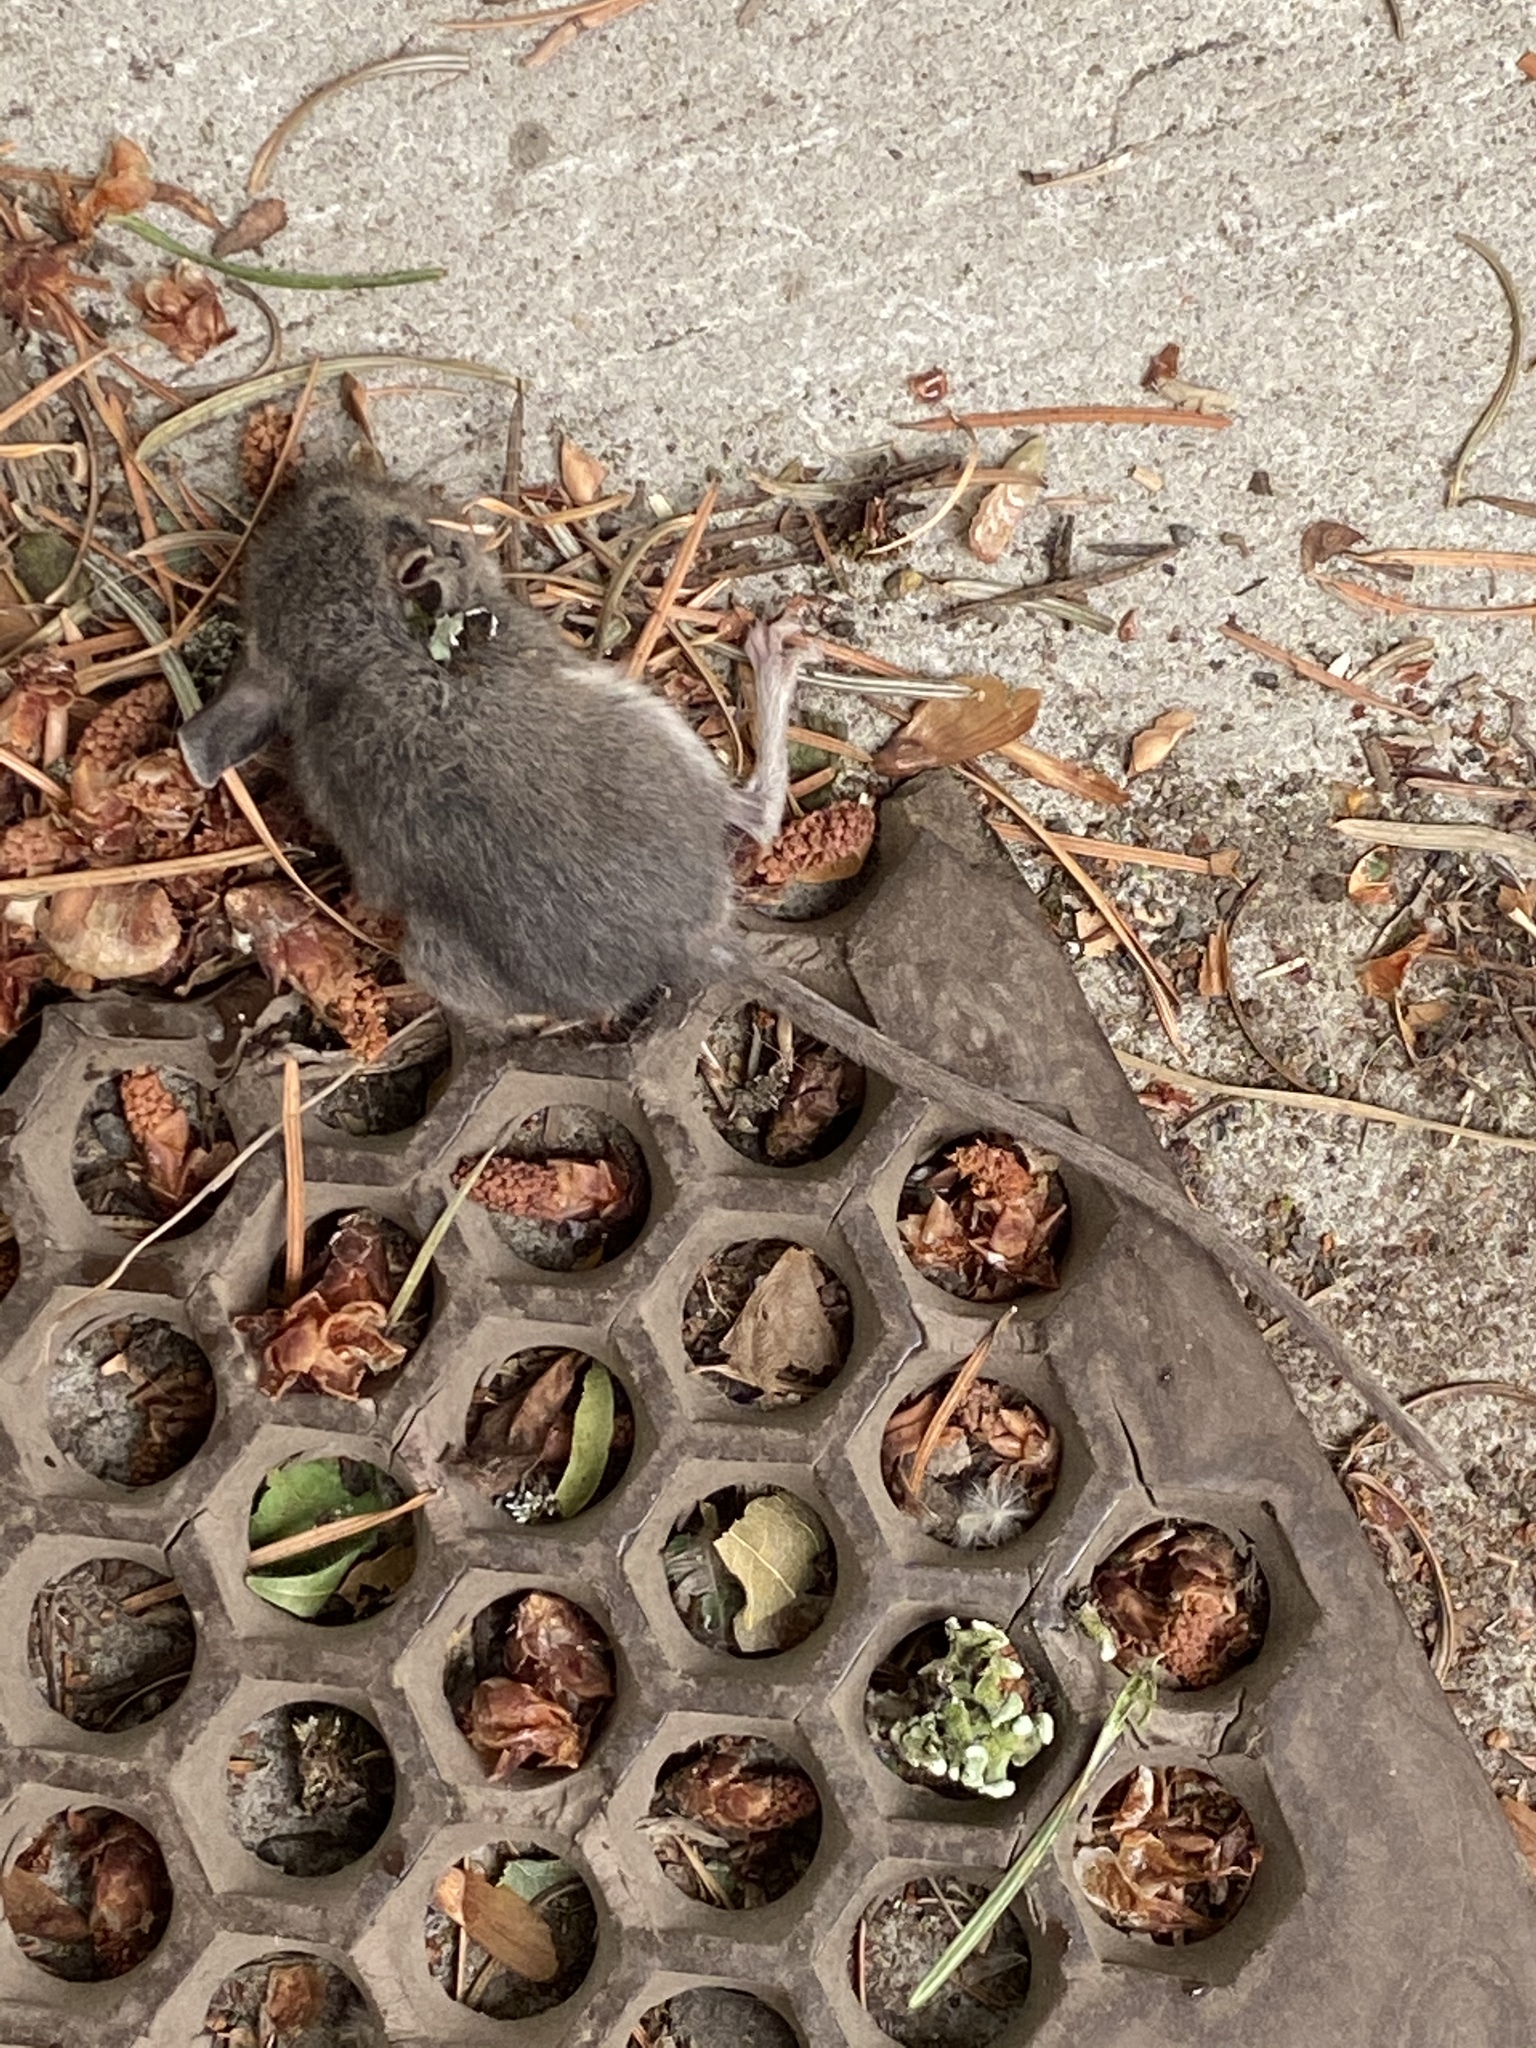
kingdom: Animalia
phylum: Chordata
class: Mammalia
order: Rodentia
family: Cricetidae
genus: Peromyscus
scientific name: Peromyscus maniculatus
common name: Deer mouse
